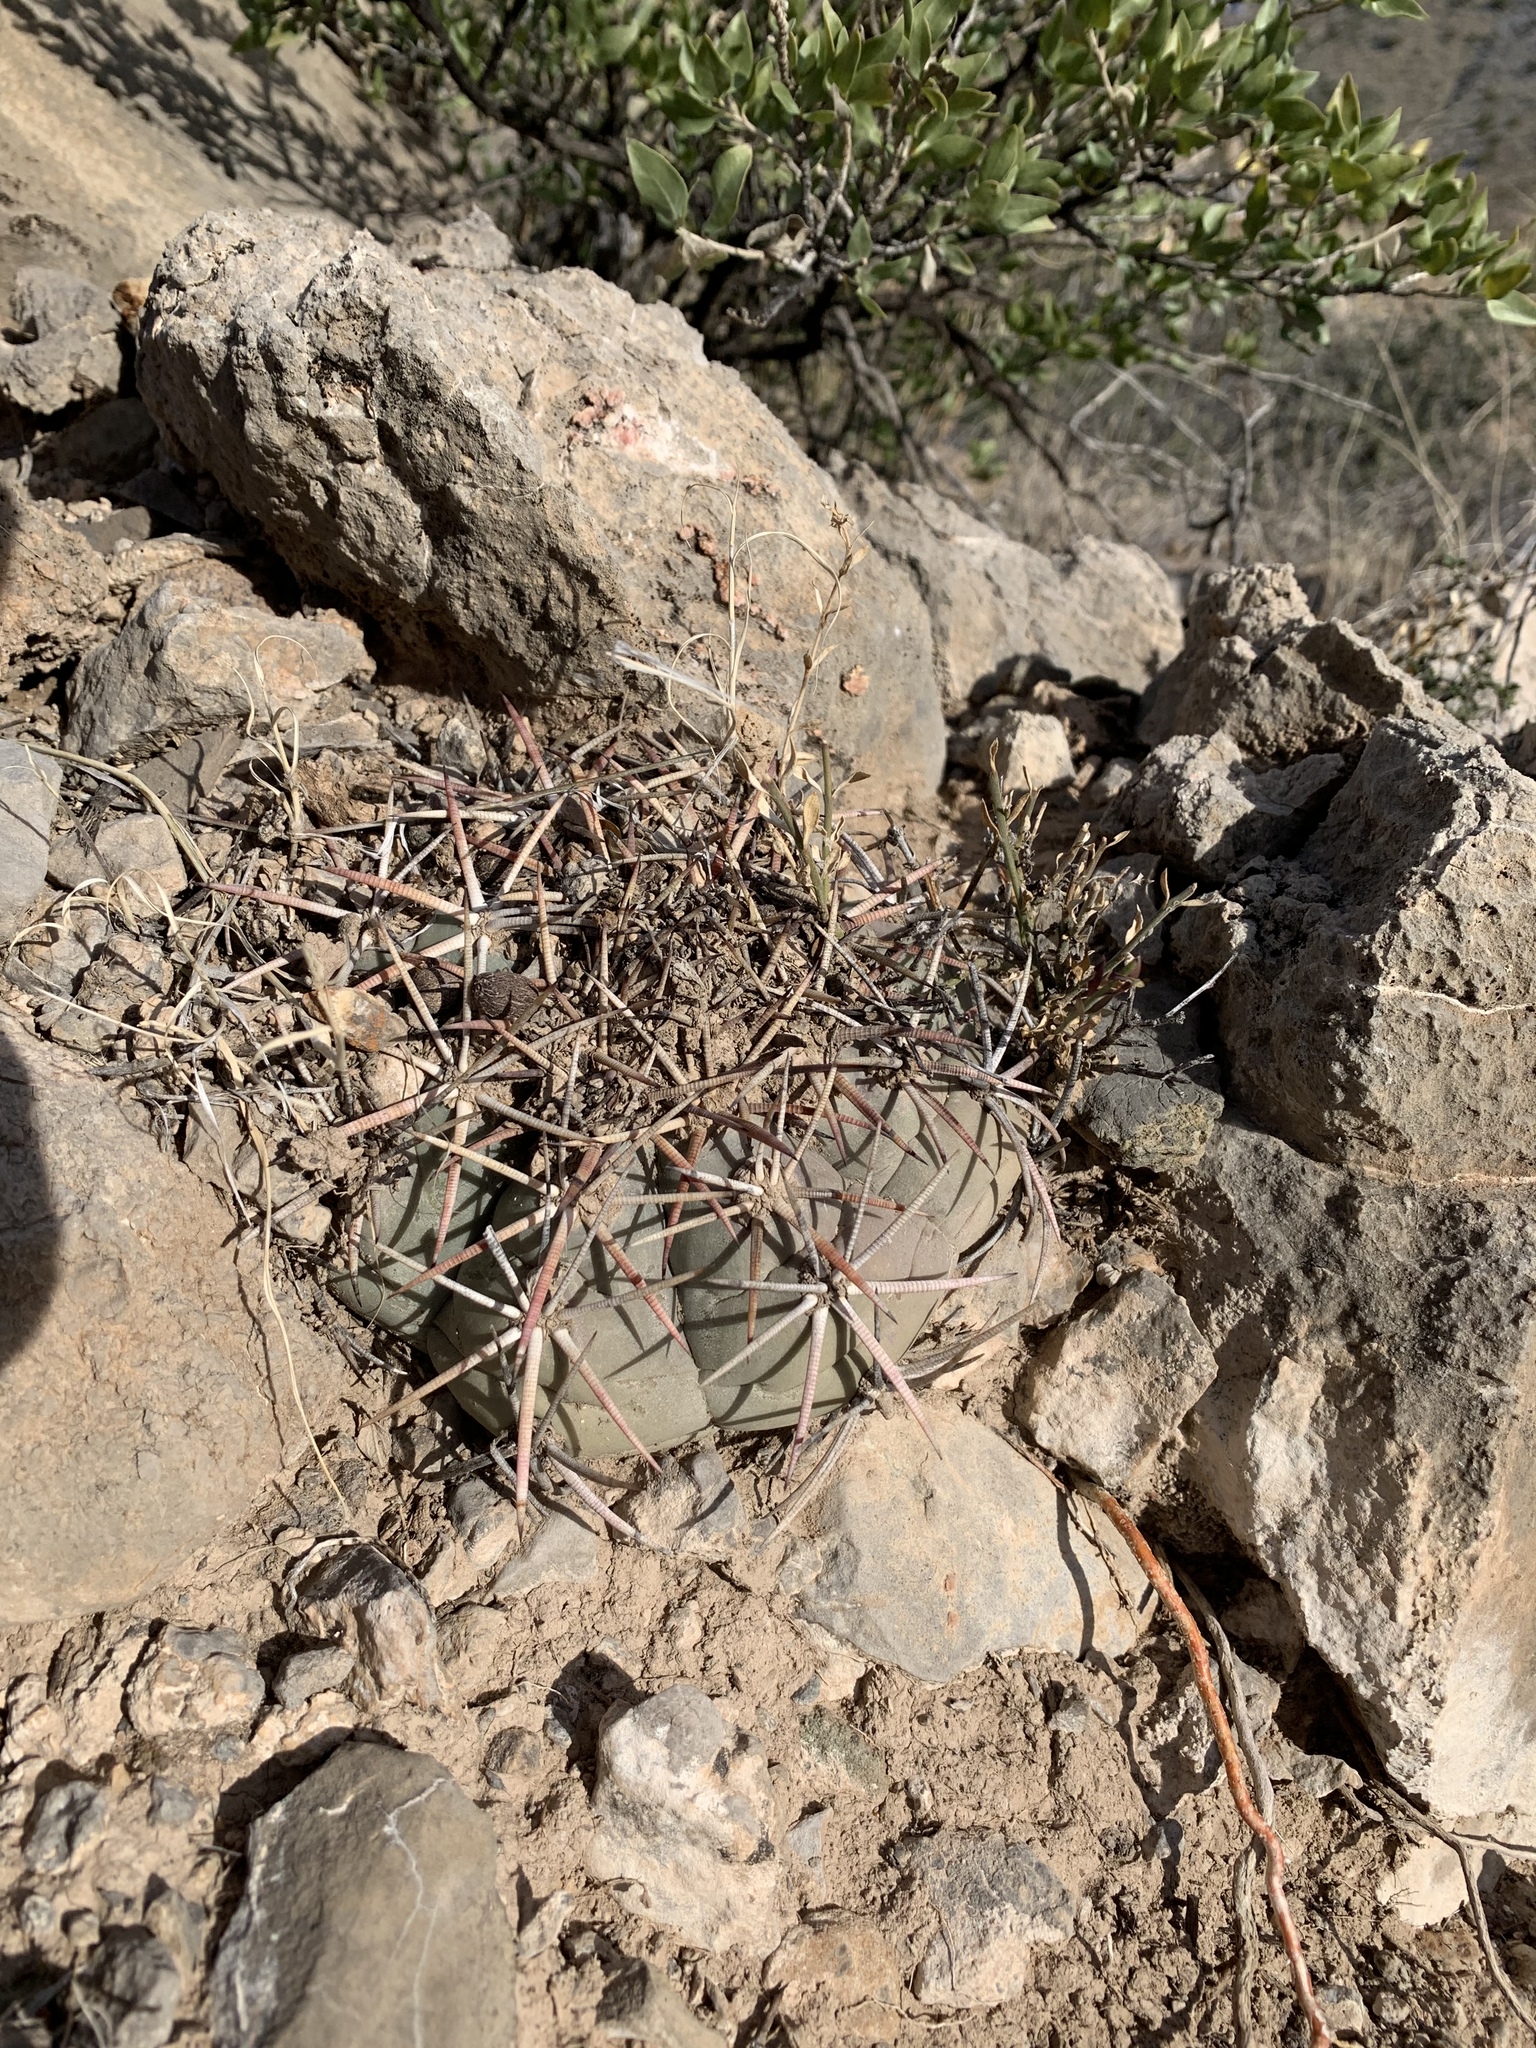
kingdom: Plantae
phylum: Tracheophyta
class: Magnoliopsida
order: Caryophyllales
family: Cactaceae
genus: Echinocactus
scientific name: Echinocactus horizonthalonius
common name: Devilshead
